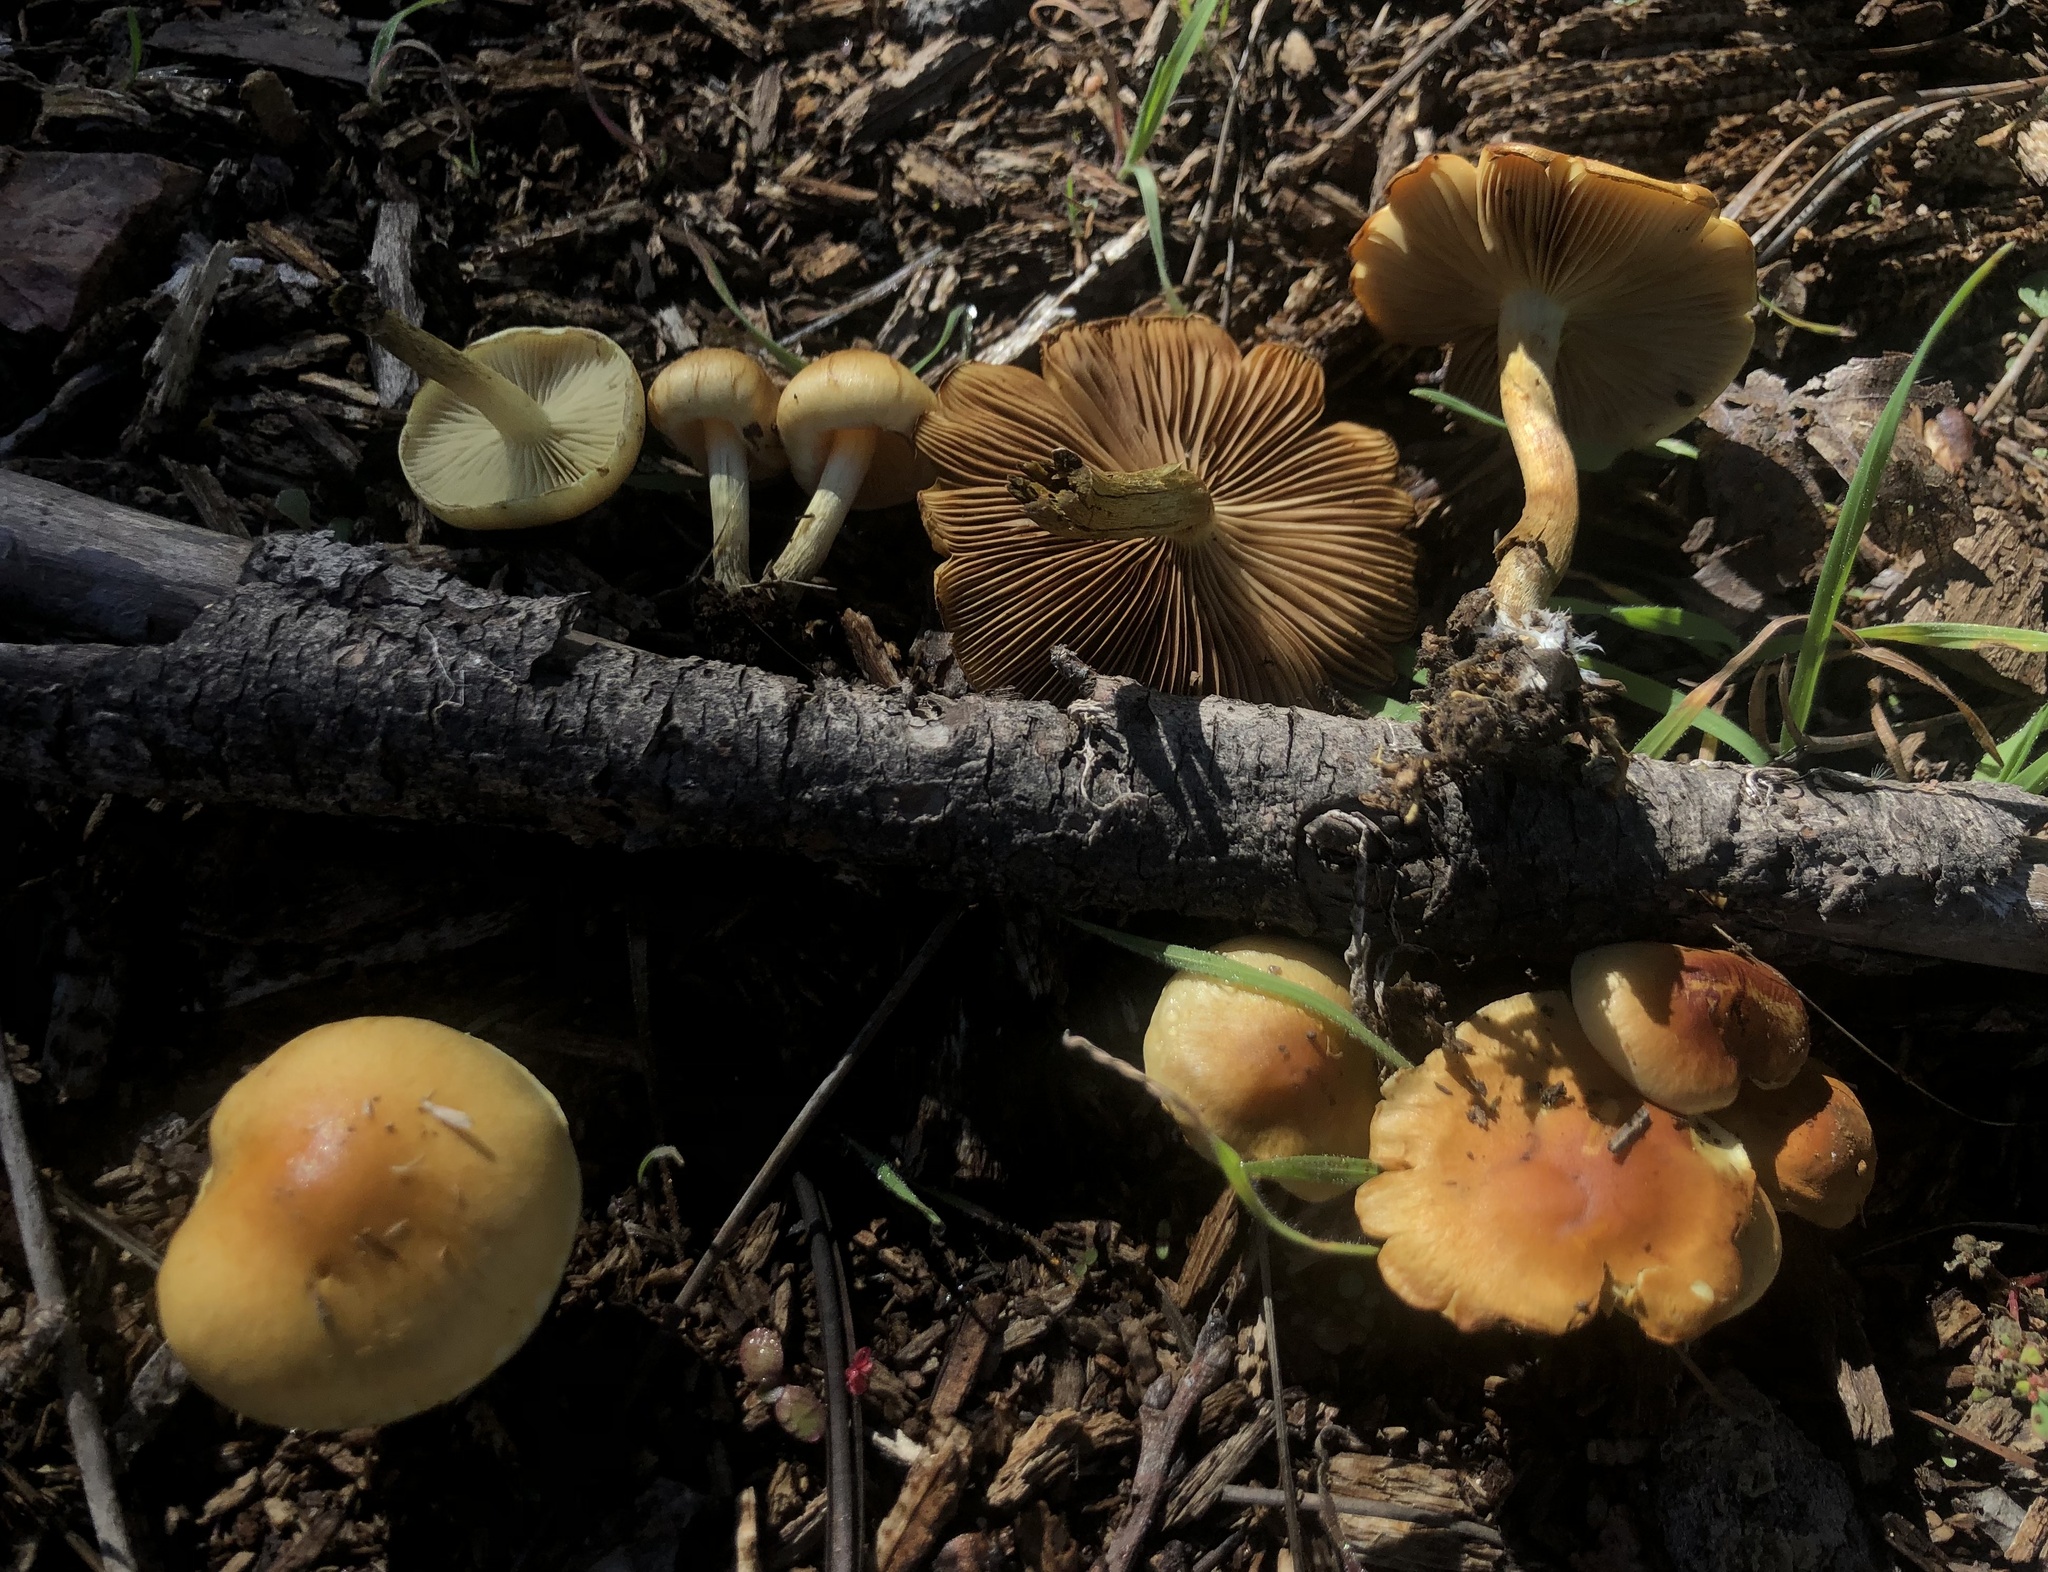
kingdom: Fungi
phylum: Basidiomycota
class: Agaricomycetes
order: Agaricales
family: Strophariaceae
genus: Pholiota
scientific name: Pholiota rufodisca
